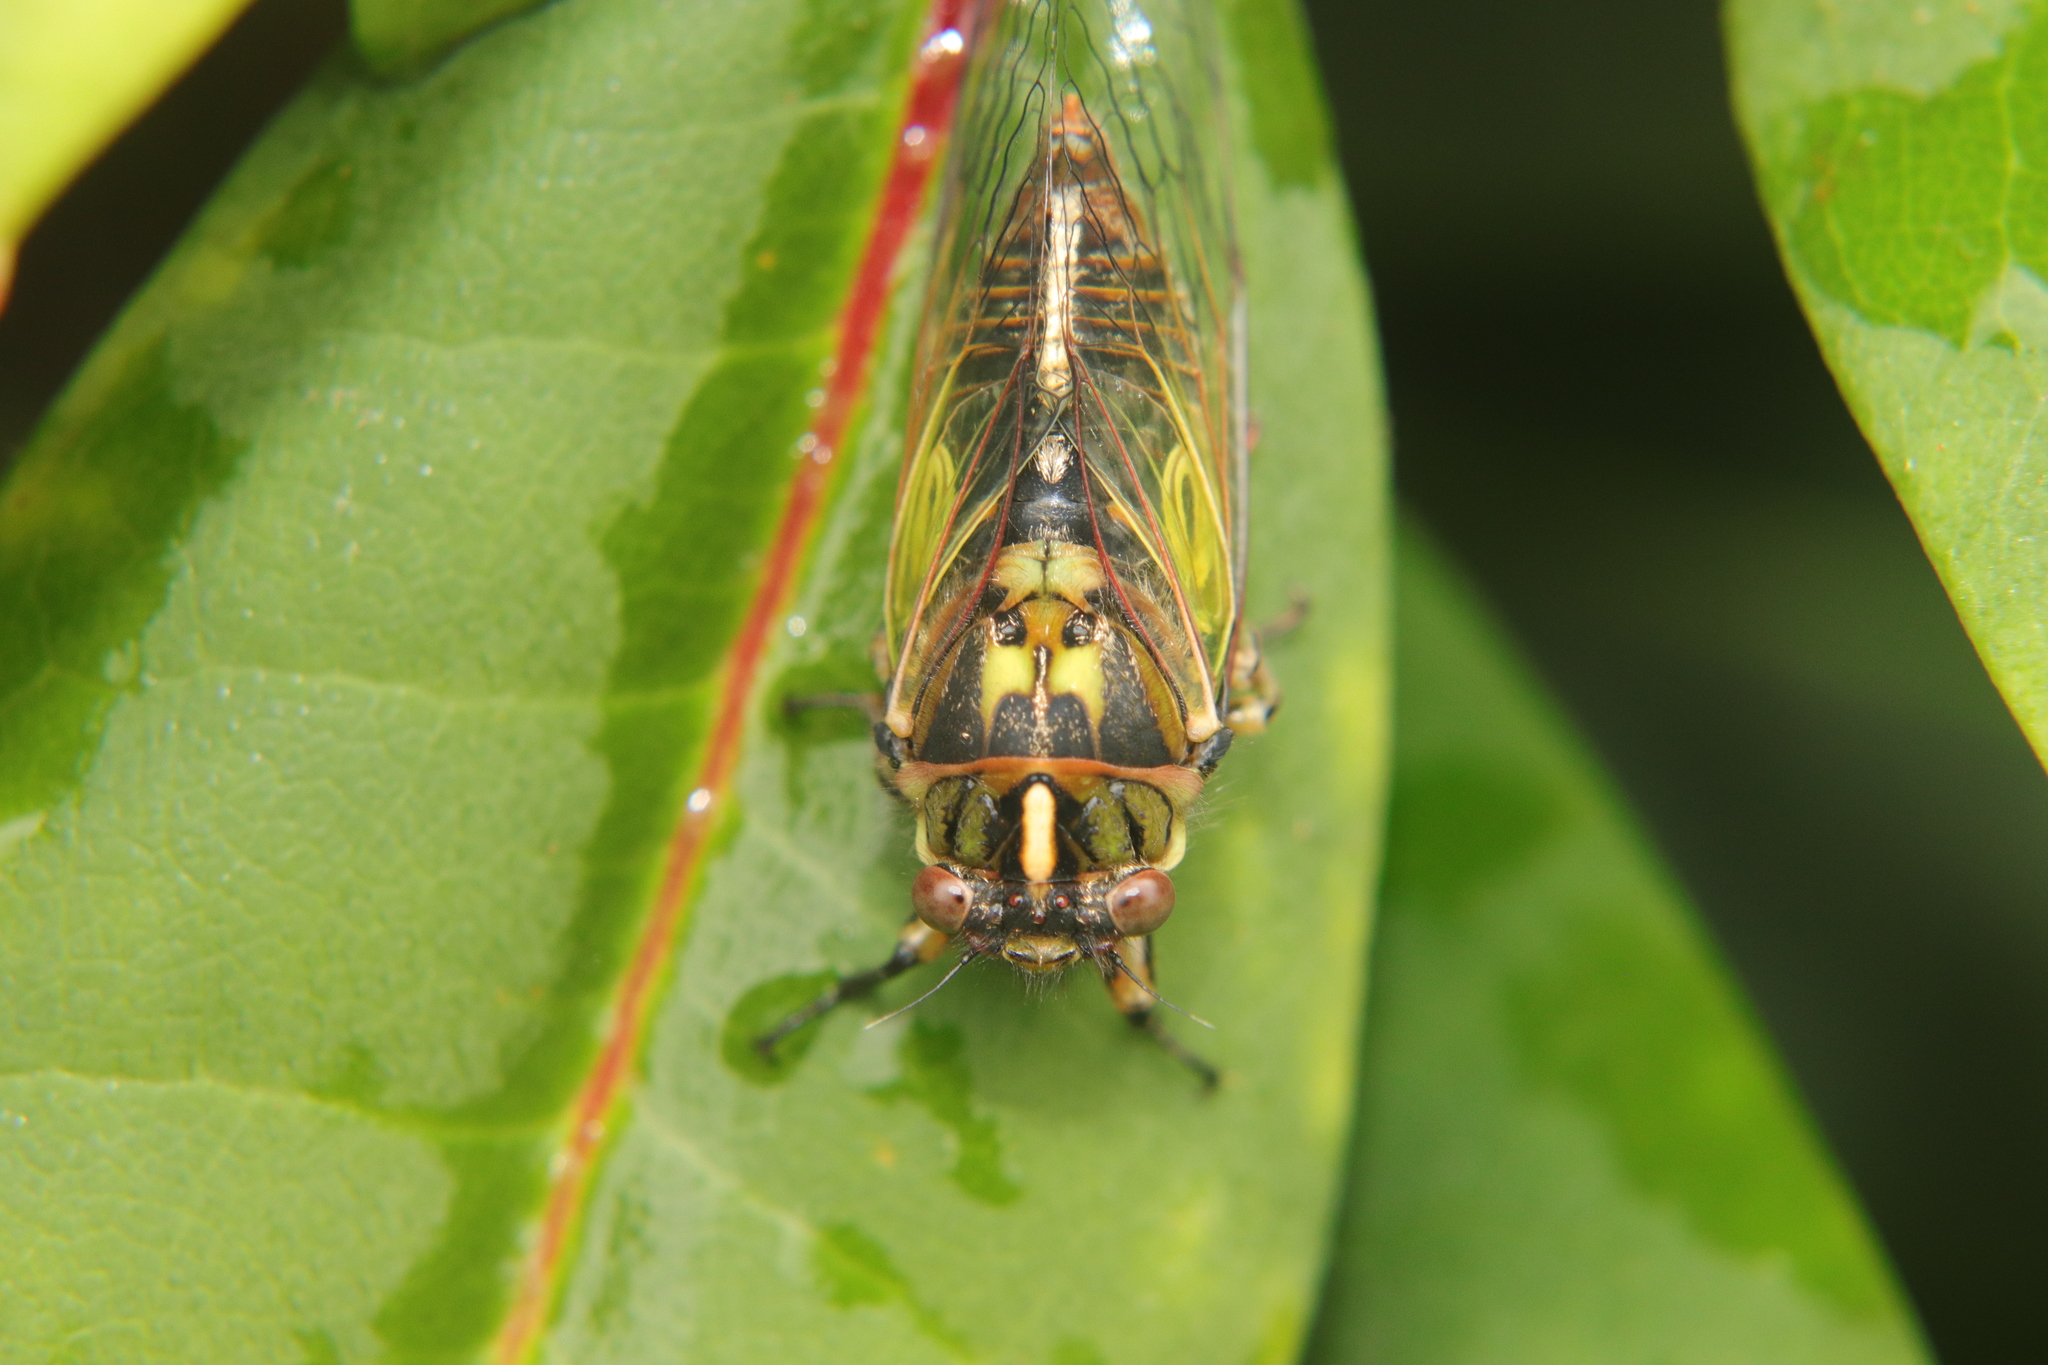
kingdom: Animalia
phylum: Arthropoda
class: Insecta
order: Hemiptera
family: Cicadidae
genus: Kikihia
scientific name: Kikihia rosea
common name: Murihiku cicada
